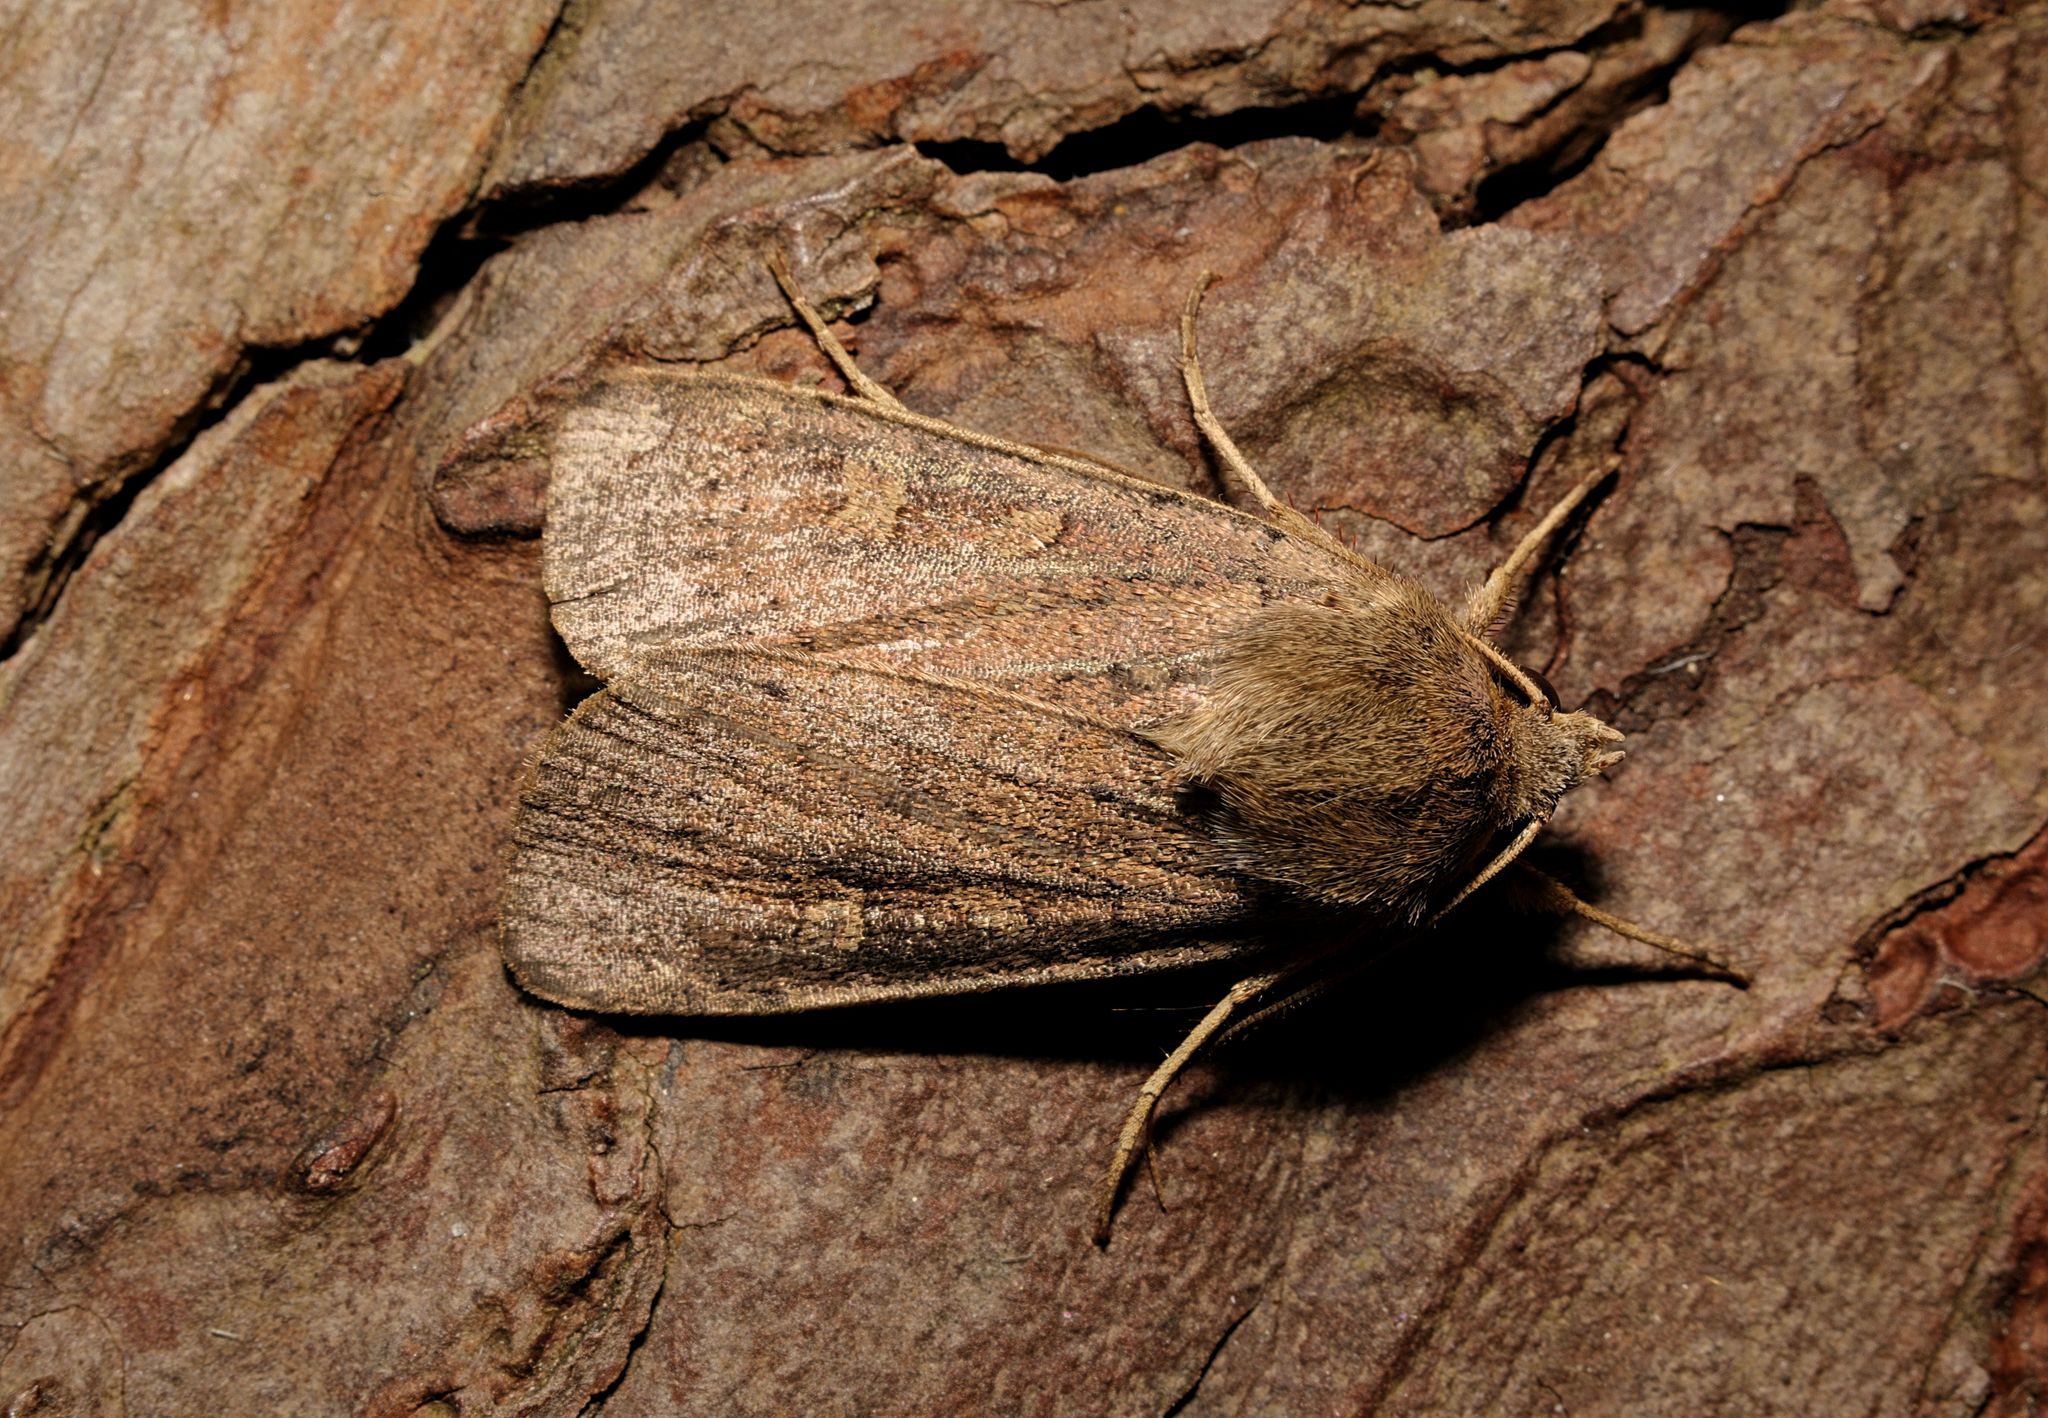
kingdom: Animalia
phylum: Arthropoda
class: Insecta
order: Lepidoptera
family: Noctuidae
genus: Xestia
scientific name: Xestia xanthographa
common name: Square-spot rustic
